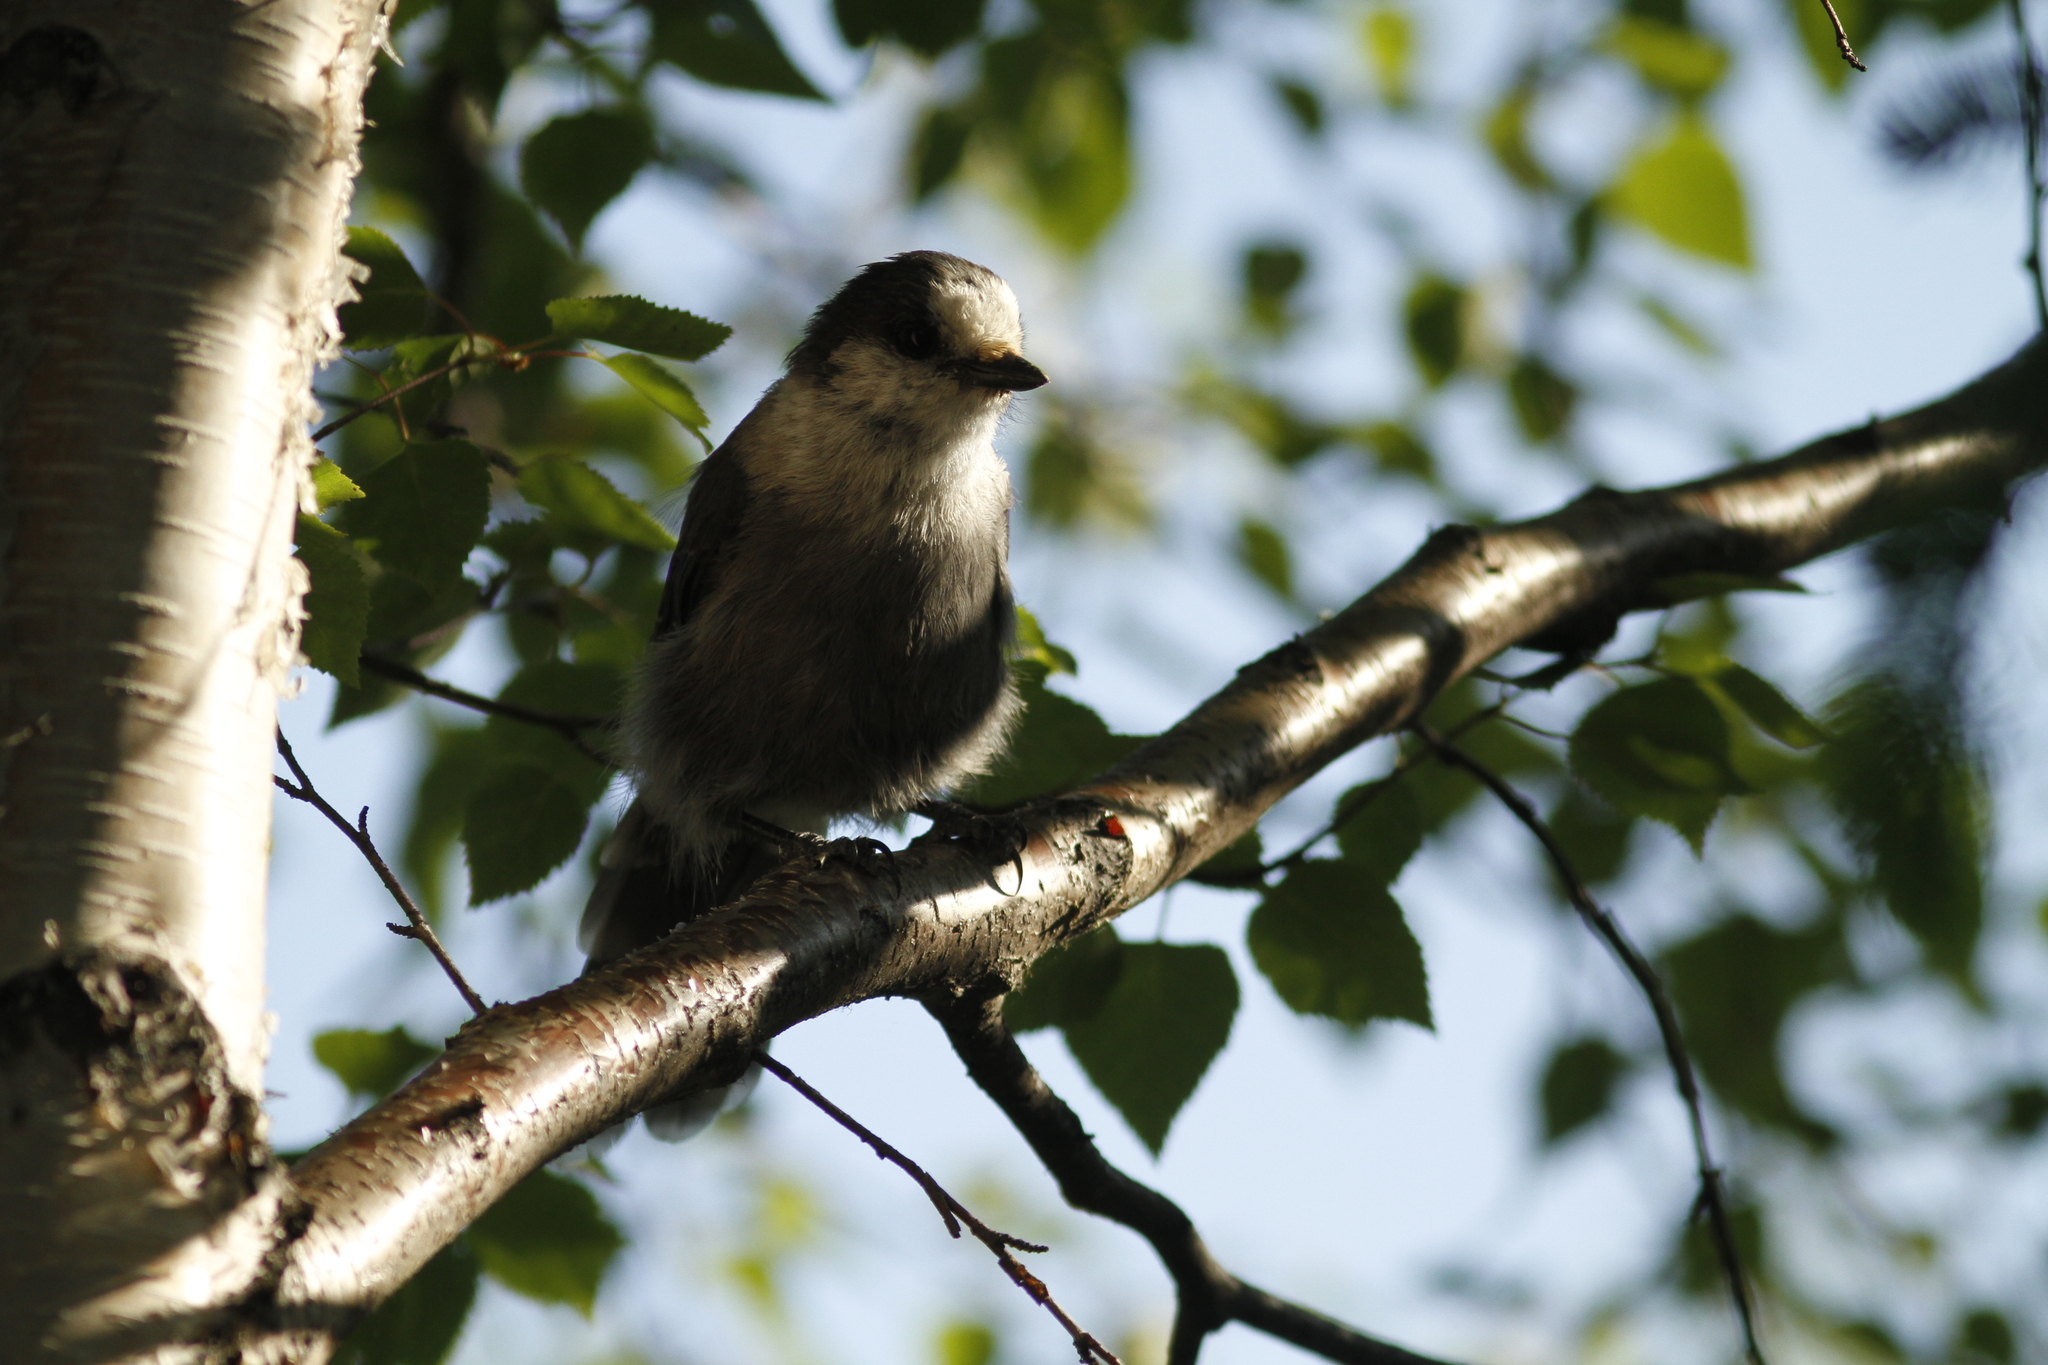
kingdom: Animalia
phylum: Chordata
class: Aves
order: Passeriformes
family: Corvidae
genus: Perisoreus
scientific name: Perisoreus canadensis
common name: Gray jay
